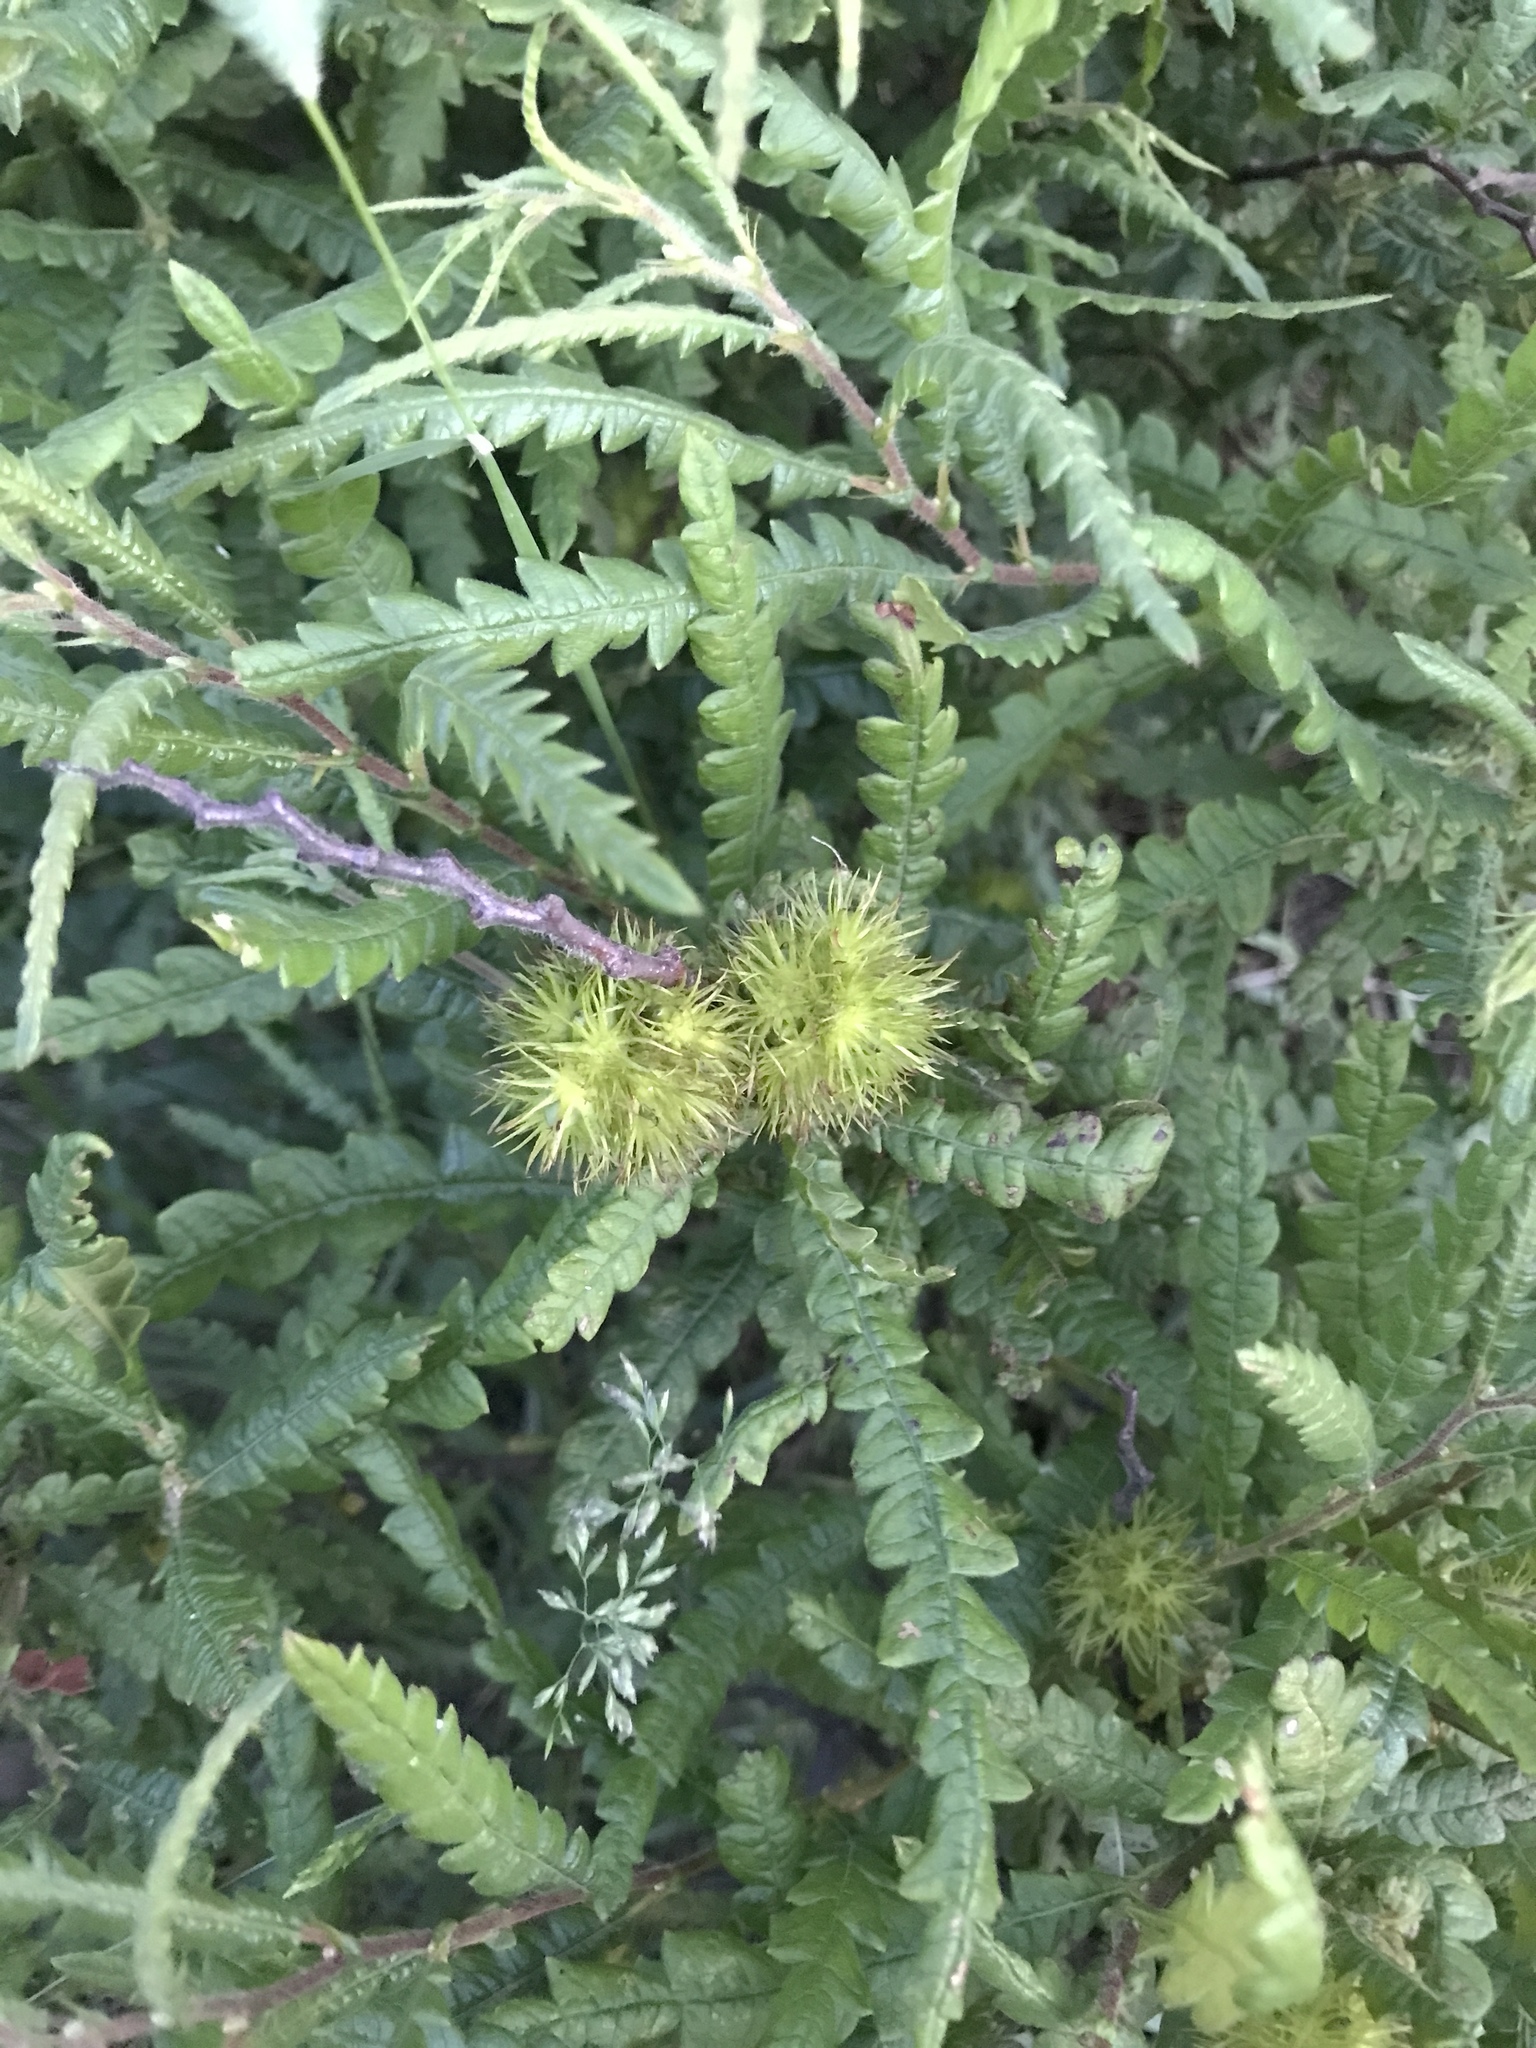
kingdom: Plantae
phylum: Tracheophyta
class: Magnoliopsida
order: Fagales
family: Myricaceae
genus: Comptonia
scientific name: Comptonia peregrina
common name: Sweet-fern
